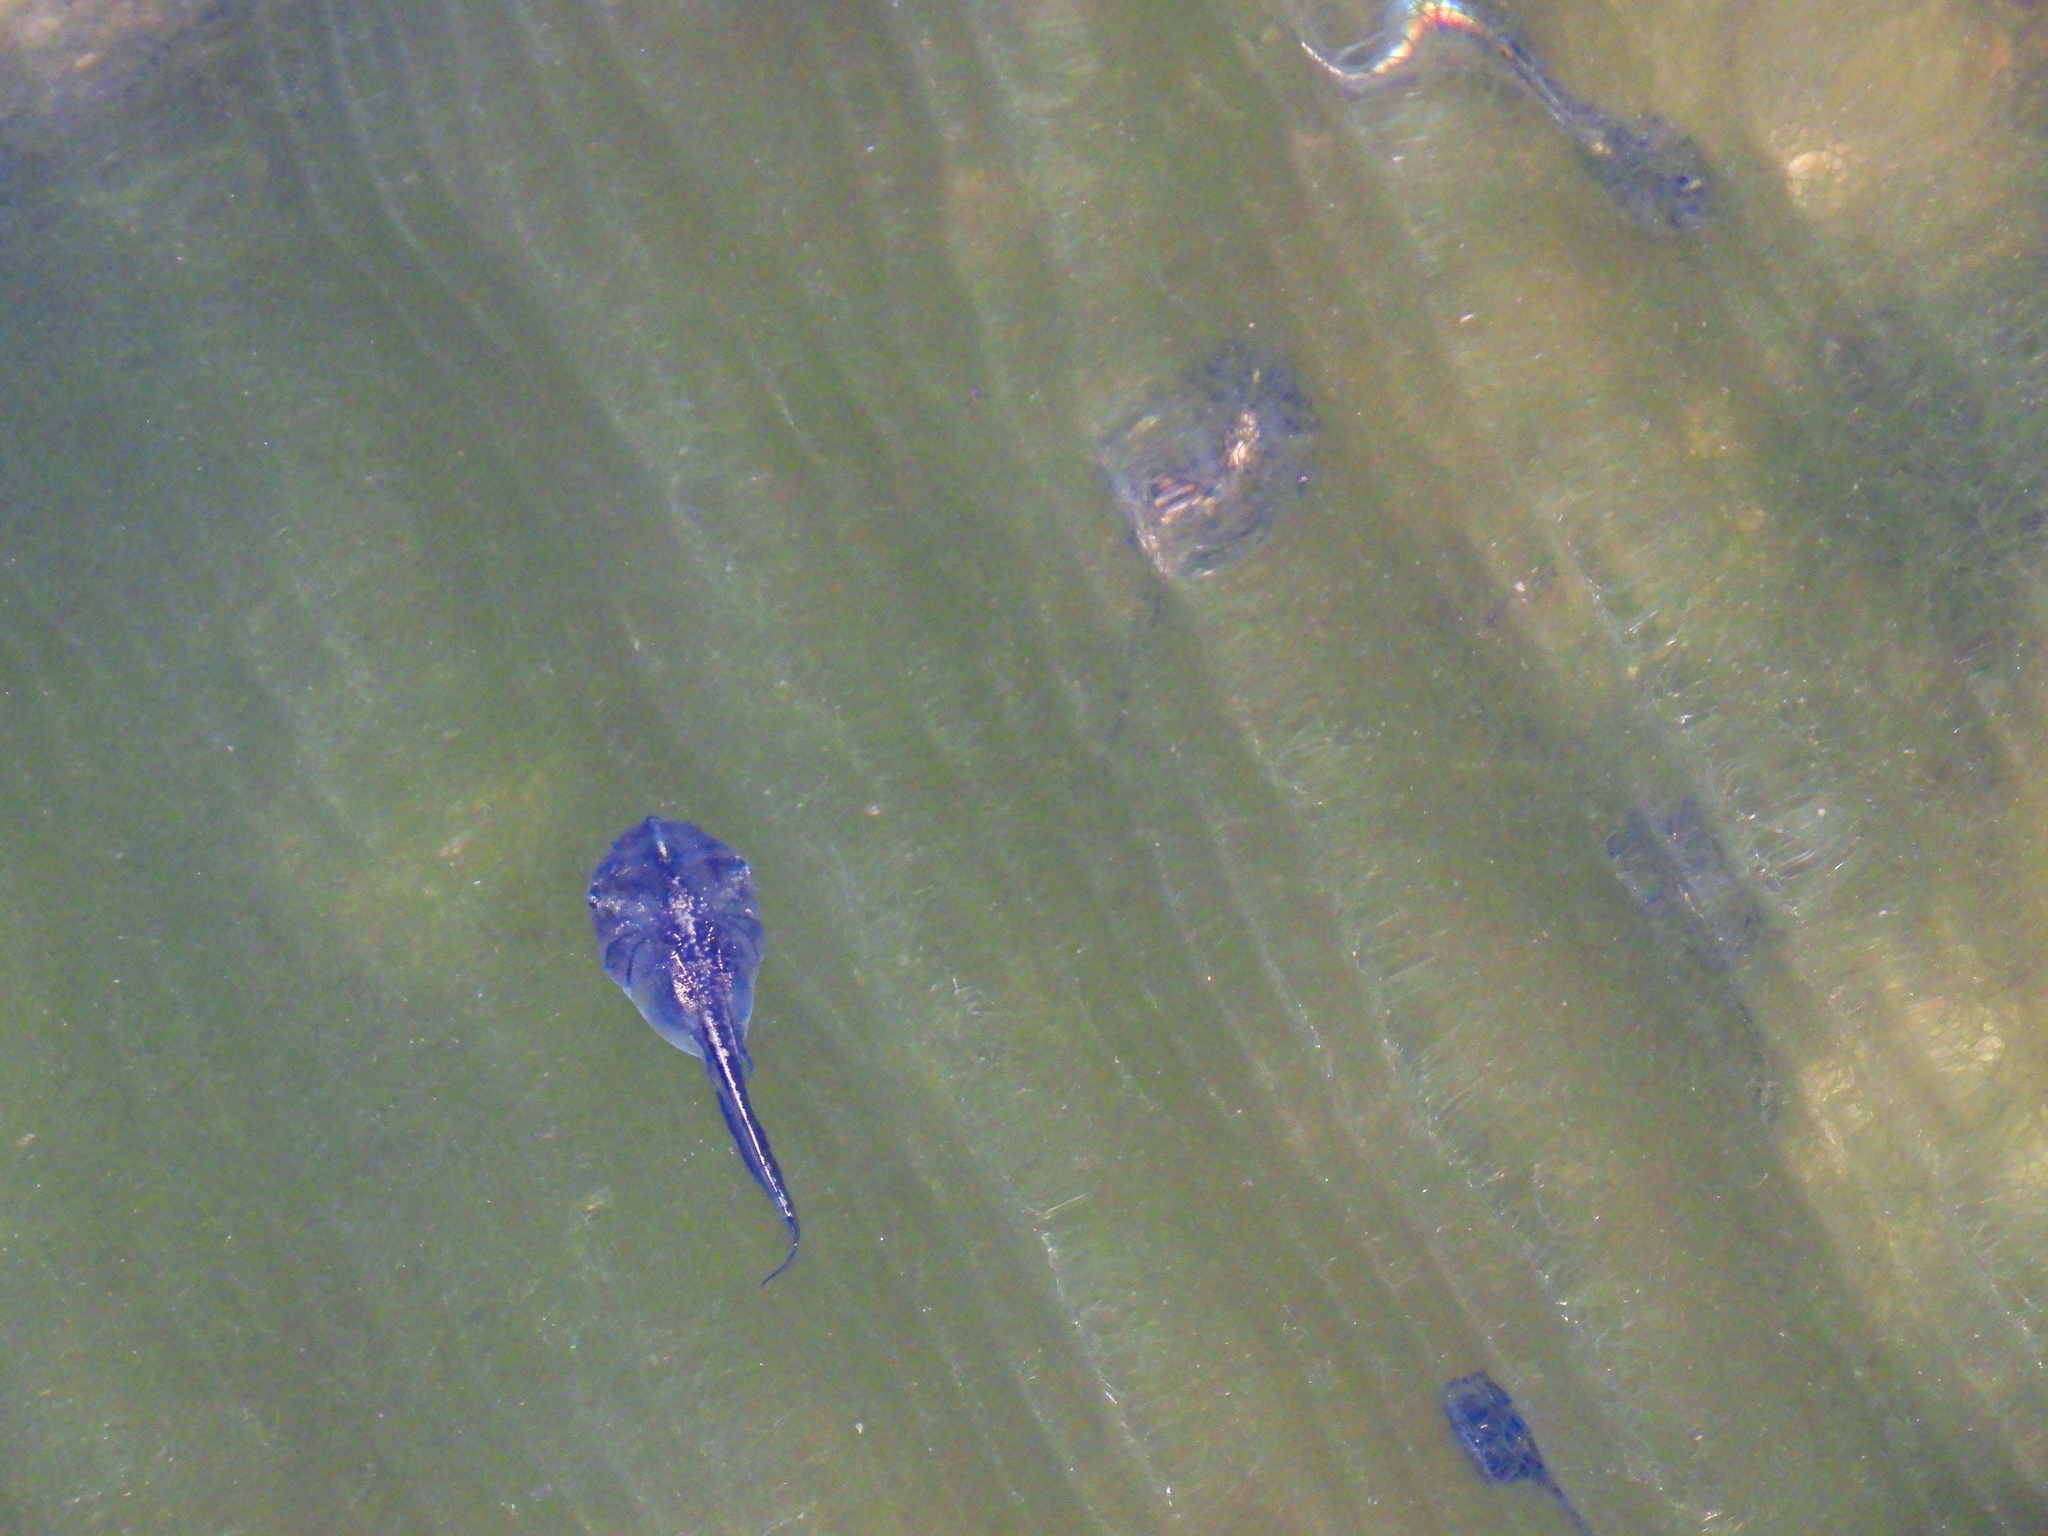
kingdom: Animalia
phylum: Chordata
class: Amphibia
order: Anura
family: Microhylidae
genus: Phrynomantis
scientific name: Phrynomantis annectens
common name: Marbled rubber frog
